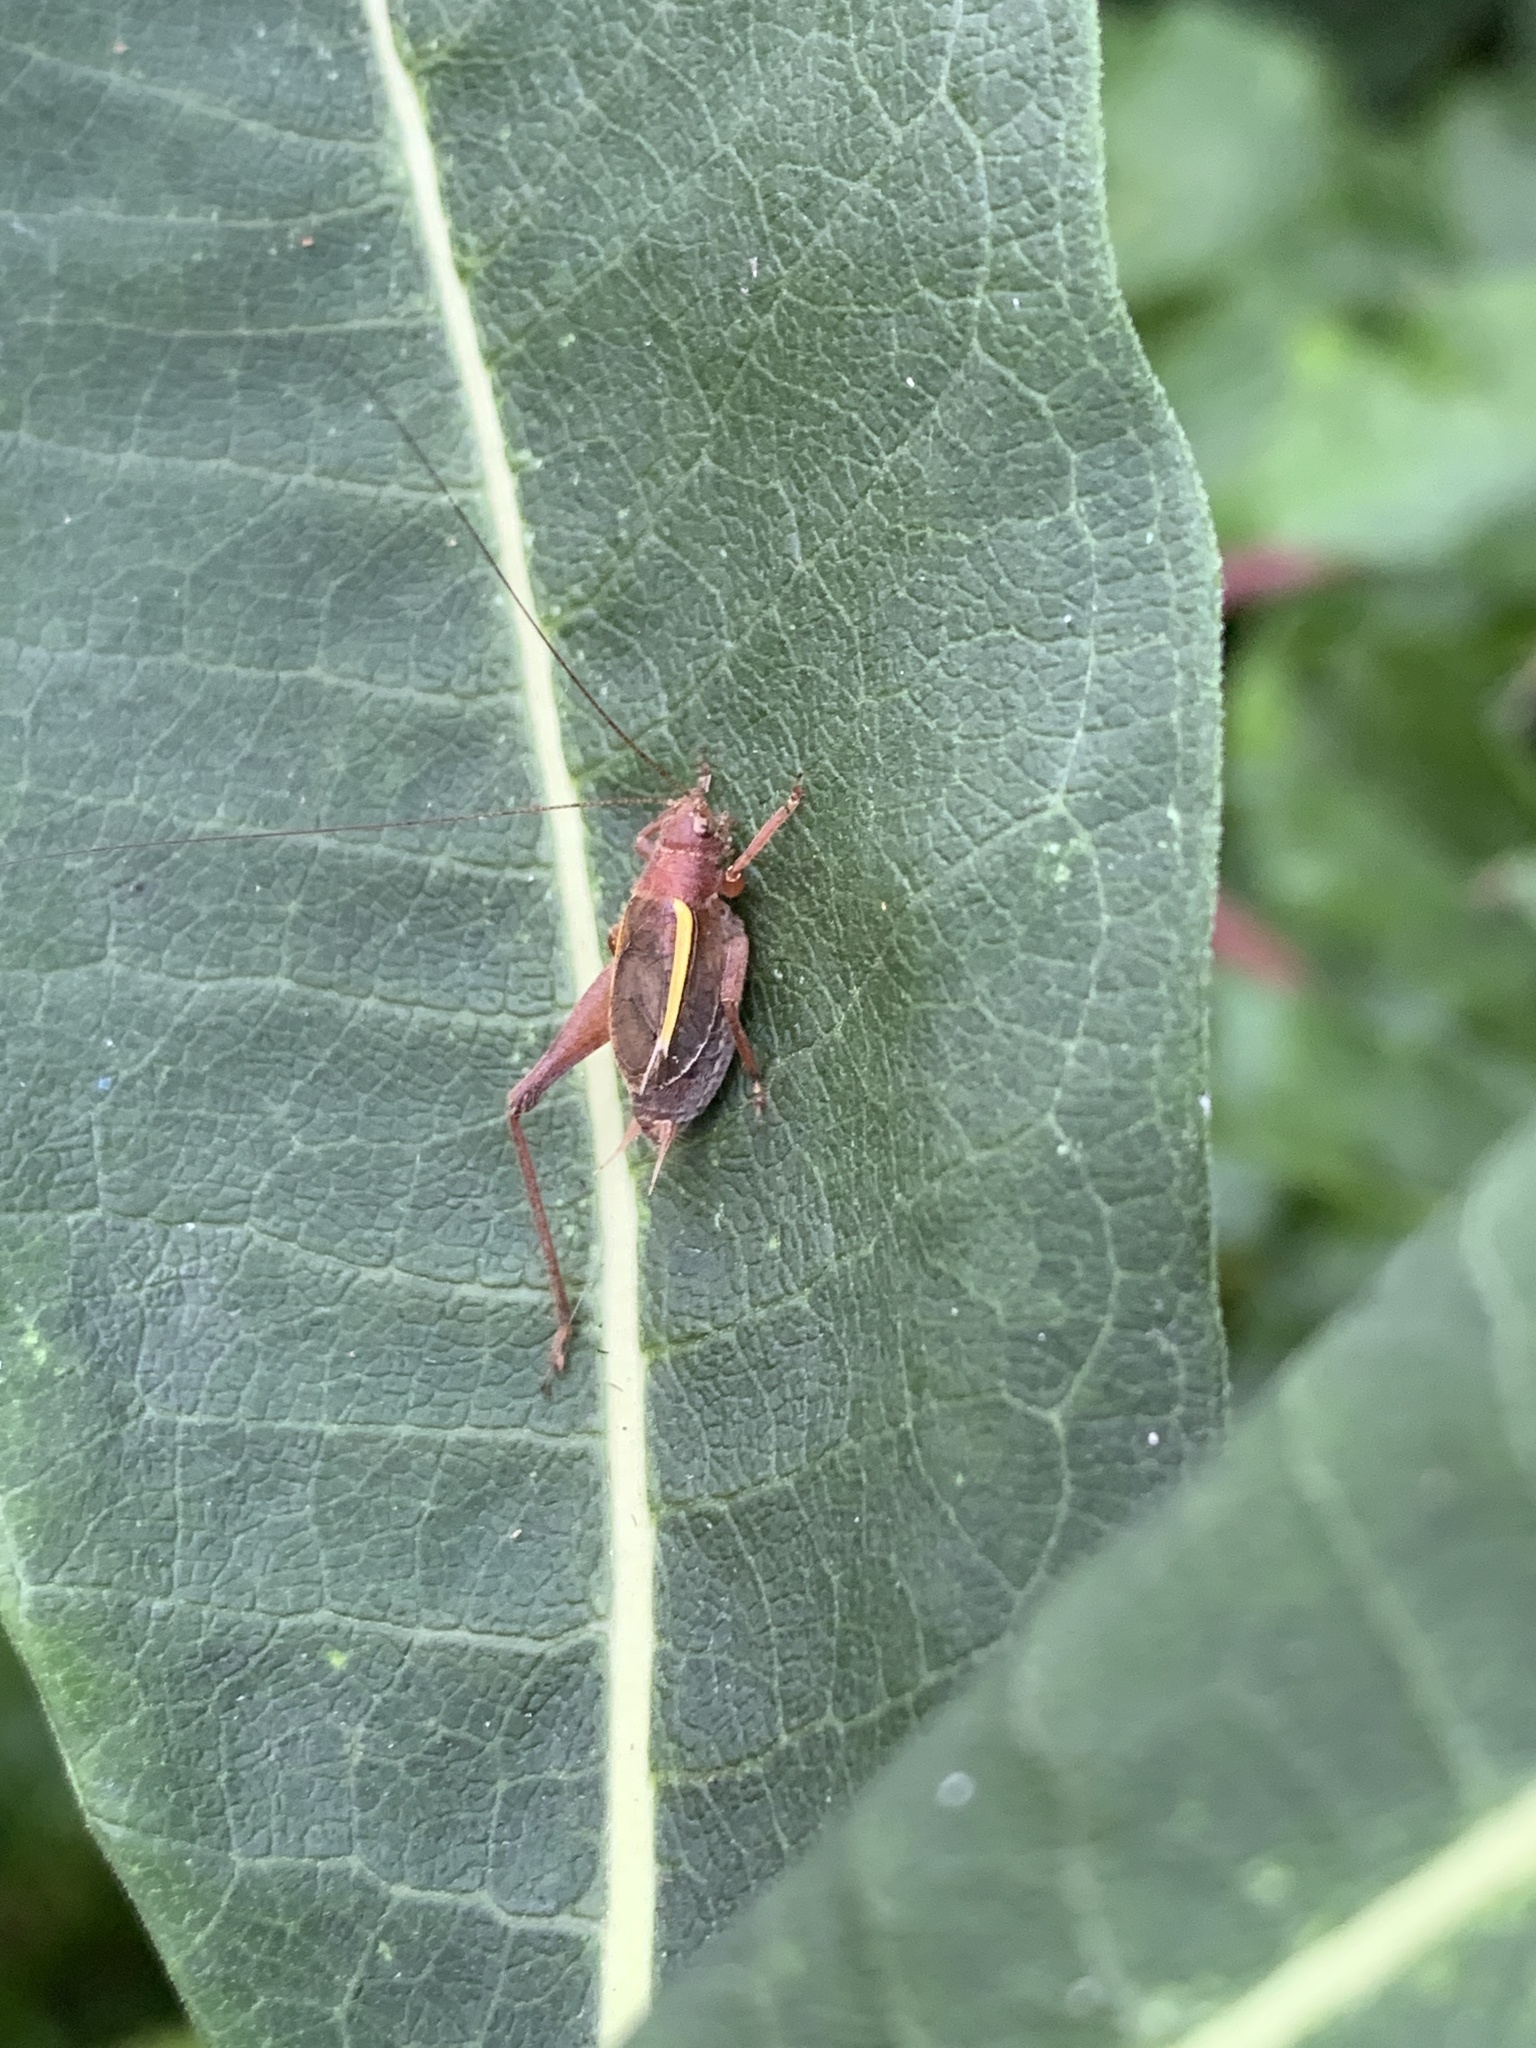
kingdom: Animalia
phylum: Arthropoda
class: Insecta
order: Orthoptera
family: Gryllidae
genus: Hapithus
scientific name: Hapithus agitator
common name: Restless bush cricket
